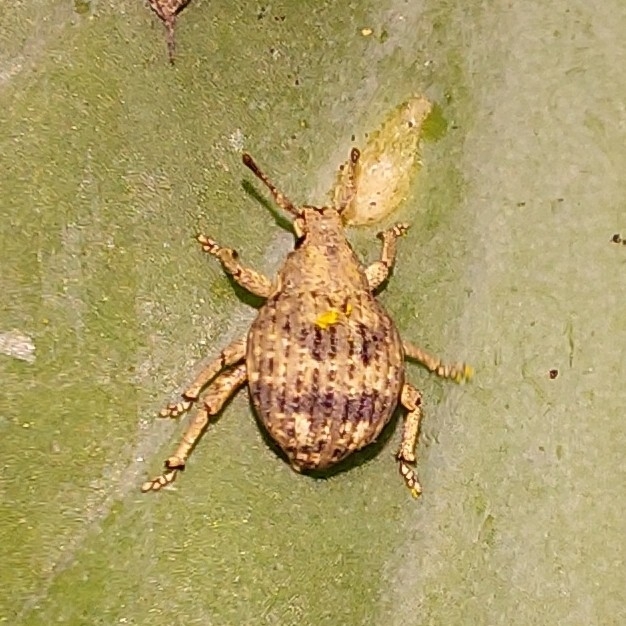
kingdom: Animalia
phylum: Arthropoda
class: Insecta
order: Coleoptera
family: Curculionidae
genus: Pseudocneorhinus
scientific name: Pseudocneorhinus bifasciatus
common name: Two-banded japanese weevil
